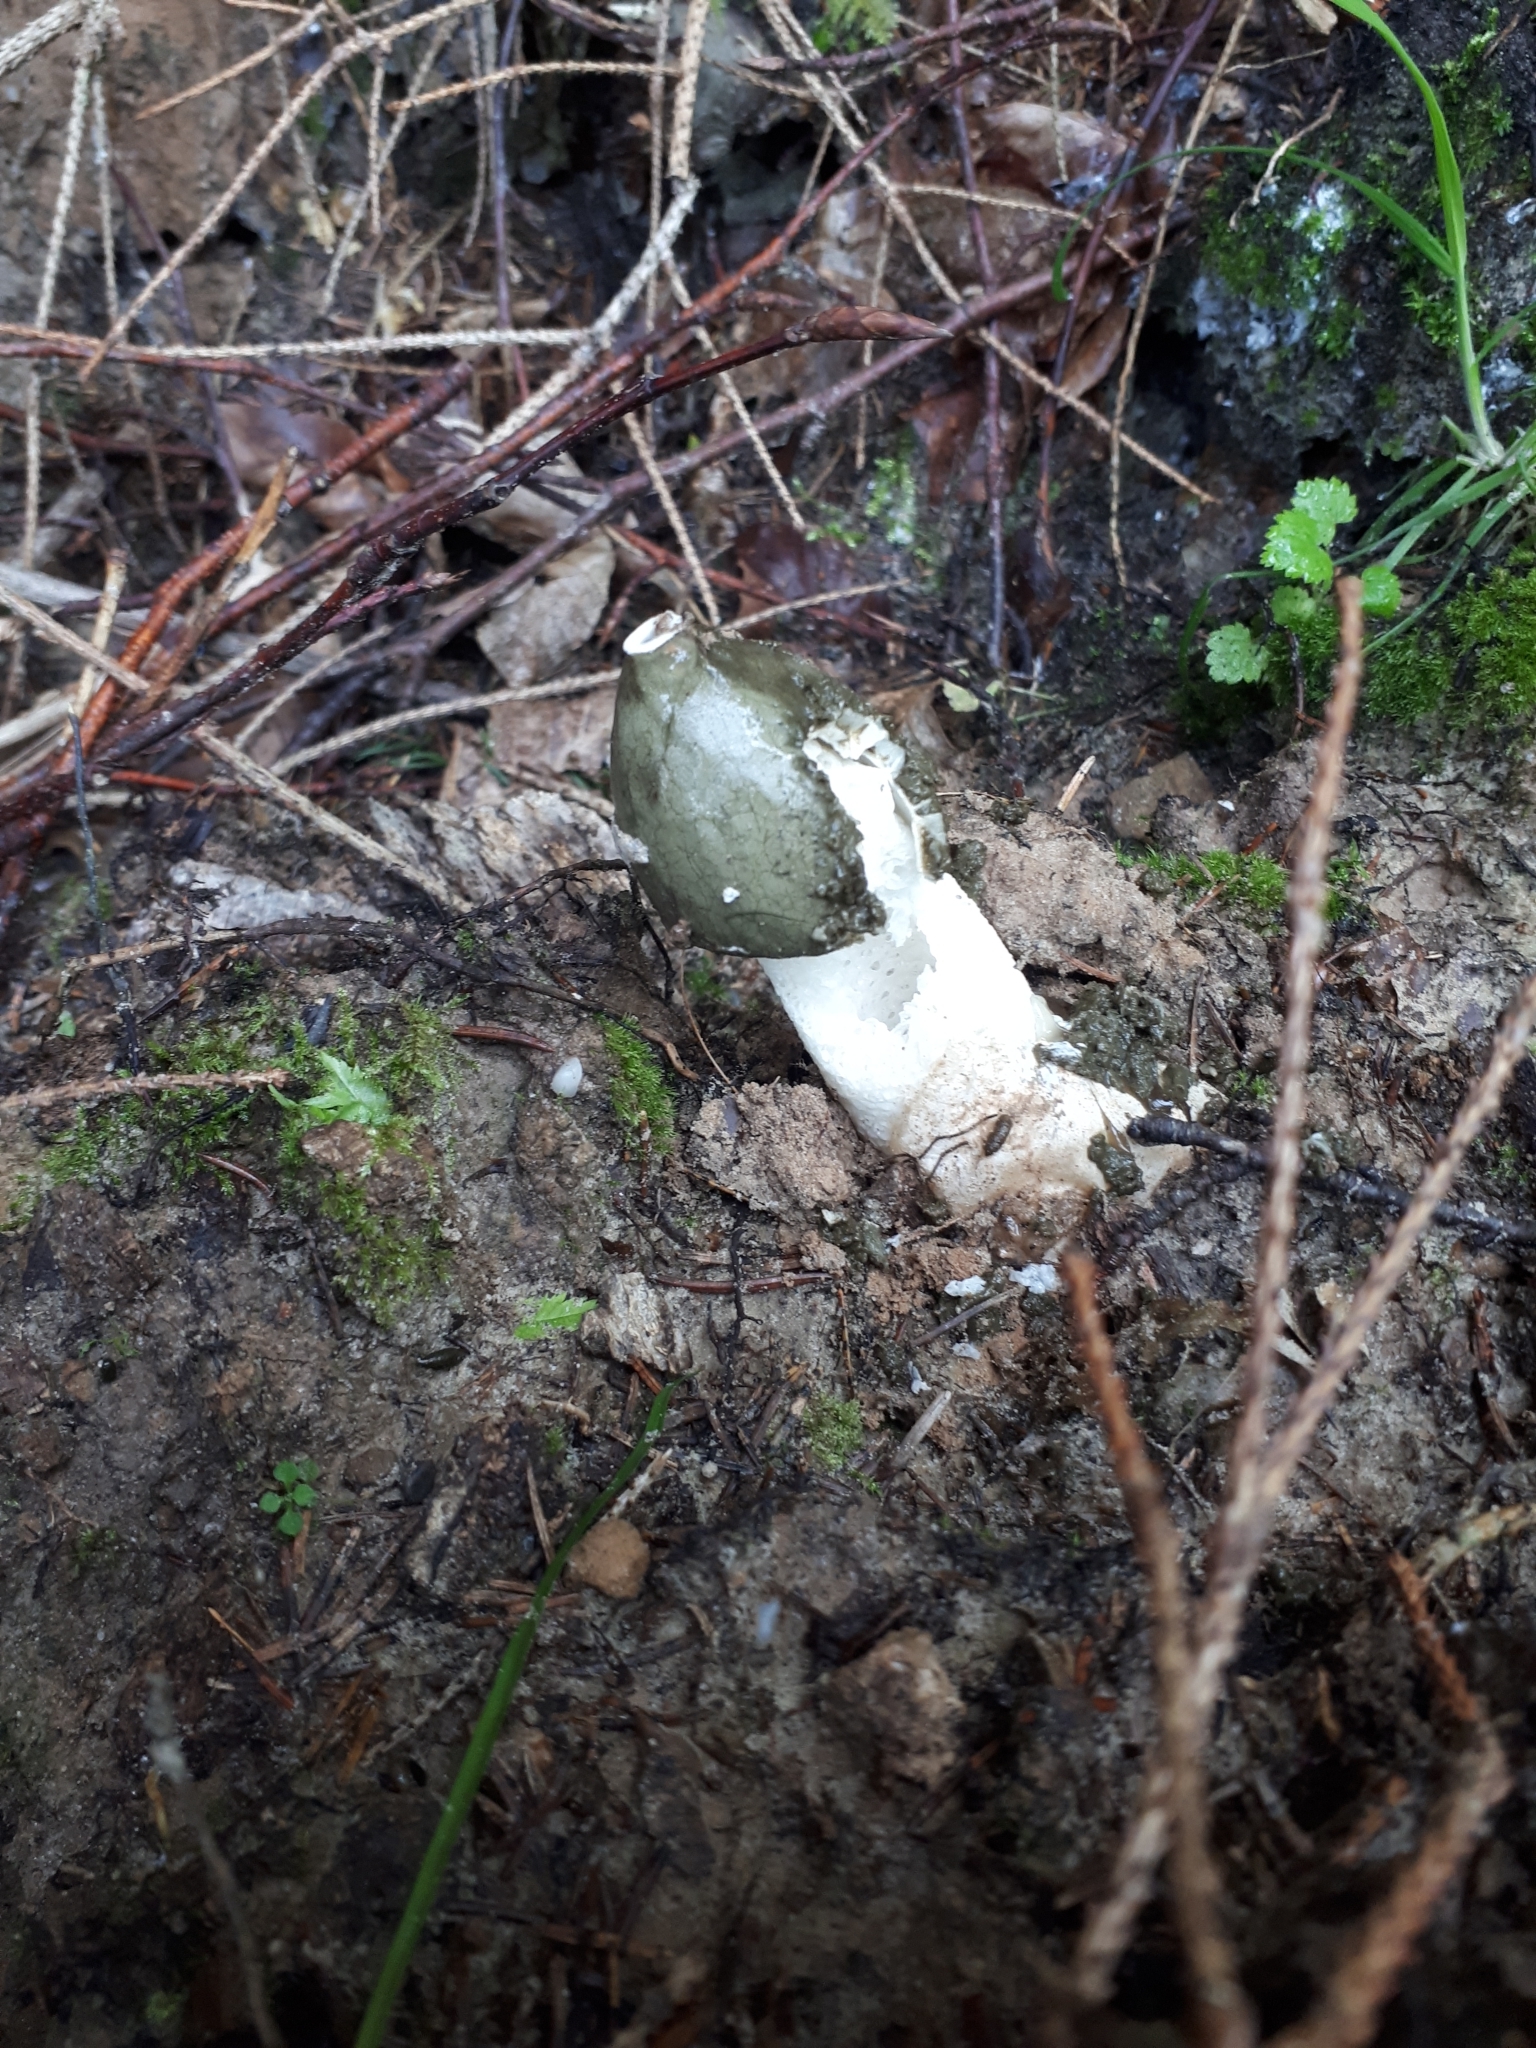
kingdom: Fungi
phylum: Basidiomycota
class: Agaricomycetes
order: Phallales
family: Phallaceae
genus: Phallus
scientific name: Phallus impudicus
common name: Common stinkhorn
